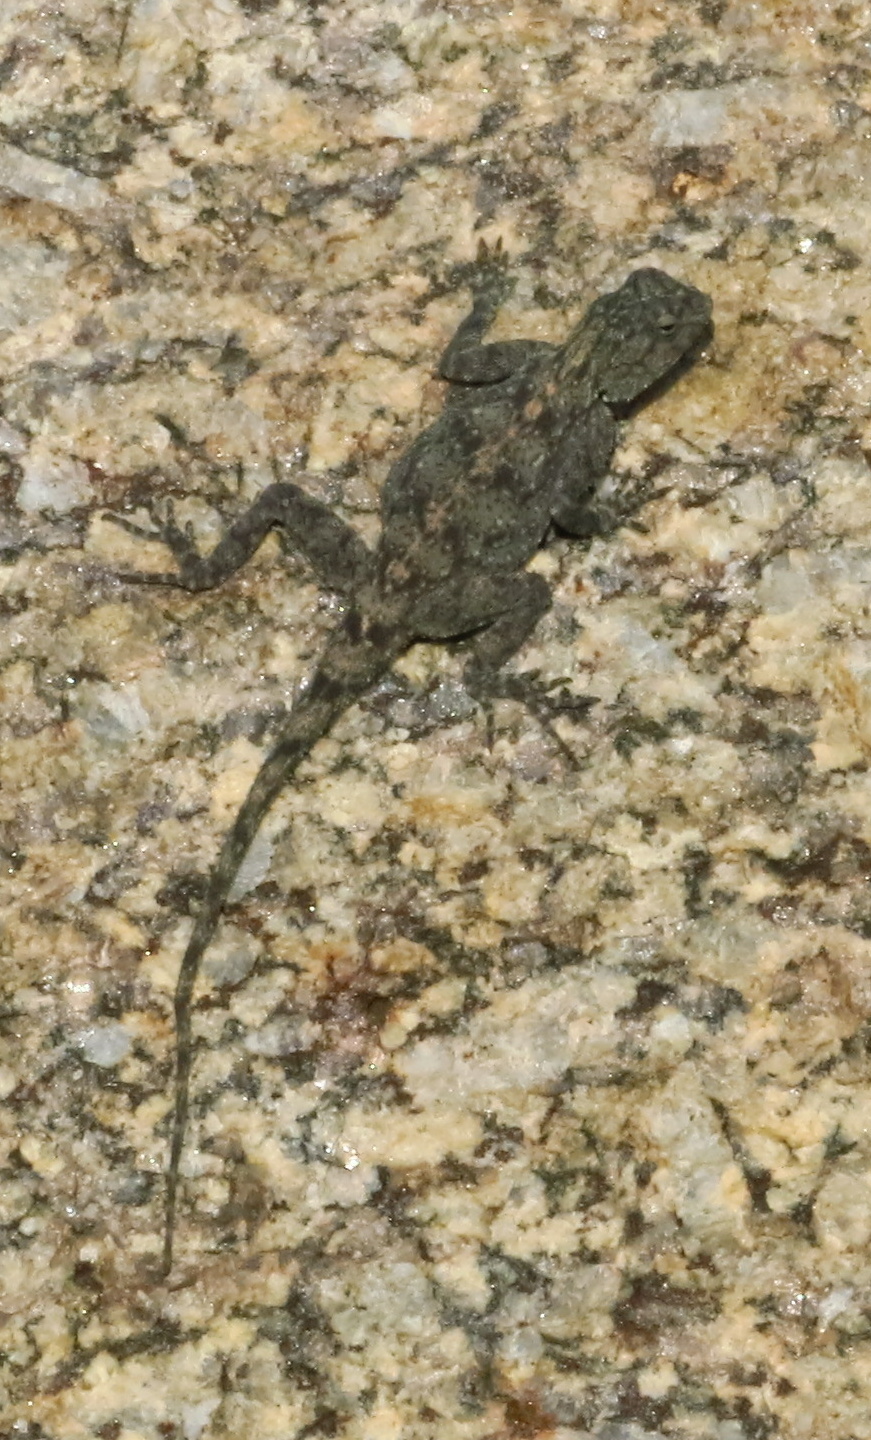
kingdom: Animalia
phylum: Chordata
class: Squamata
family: Agamidae
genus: Agama
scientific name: Agama atra
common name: Southern african rock agama
